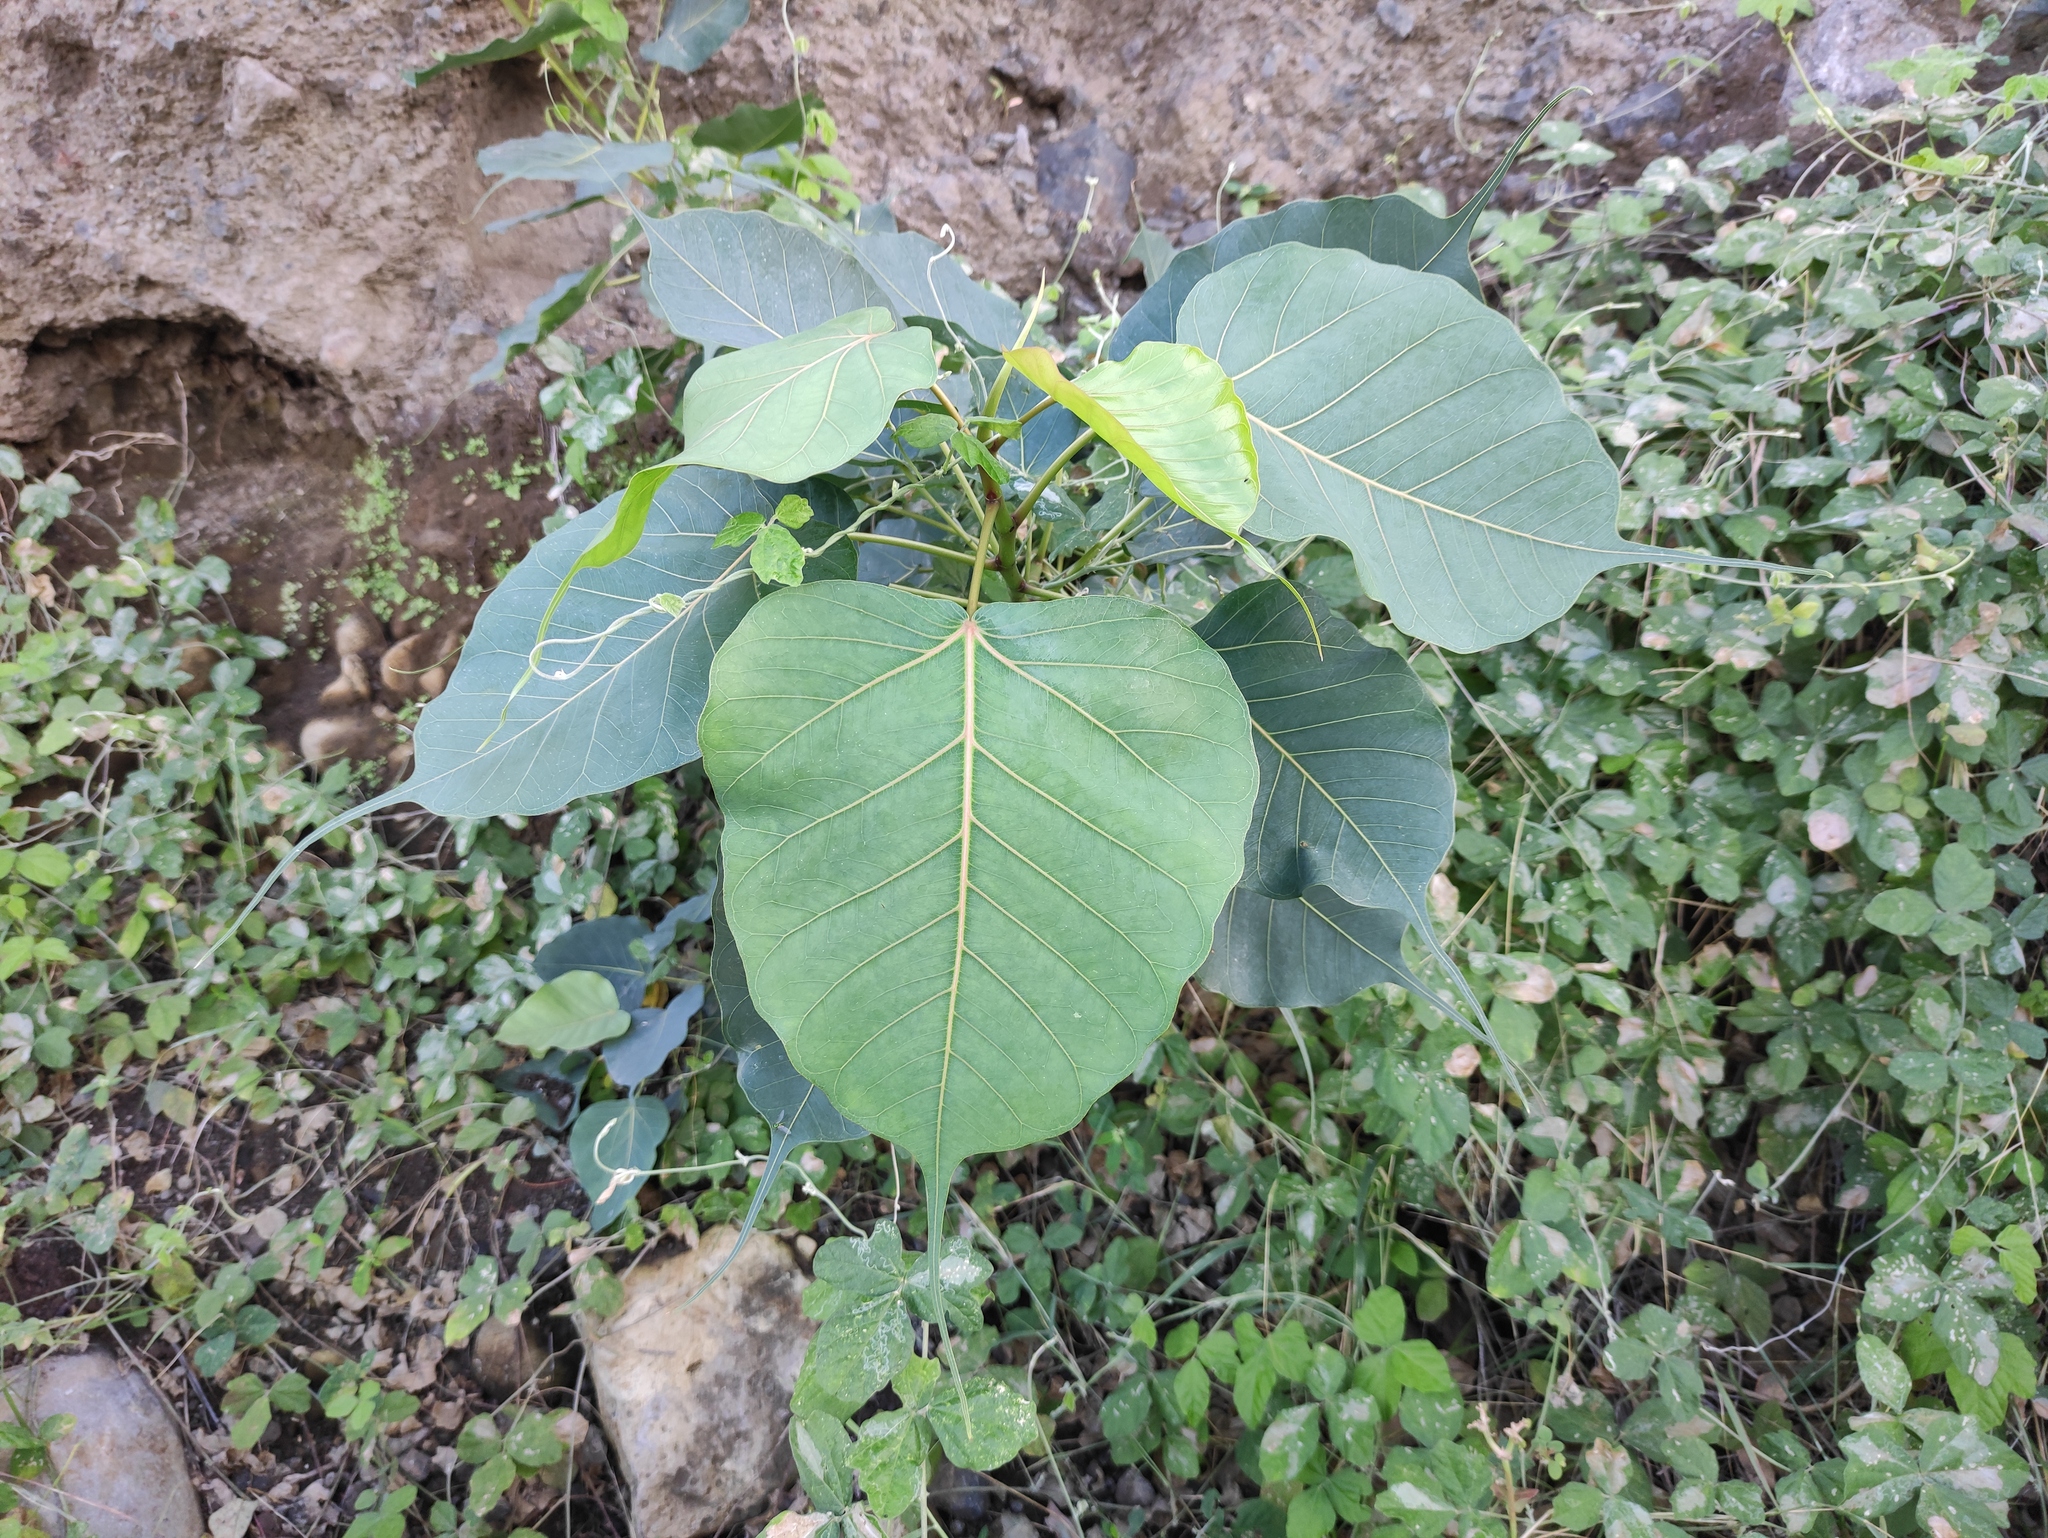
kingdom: Plantae
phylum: Tracheophyta
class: Magnoliopsida
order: Rosales
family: Moraceae
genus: Ficus
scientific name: Ficus religiosa
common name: Bodhi tree
